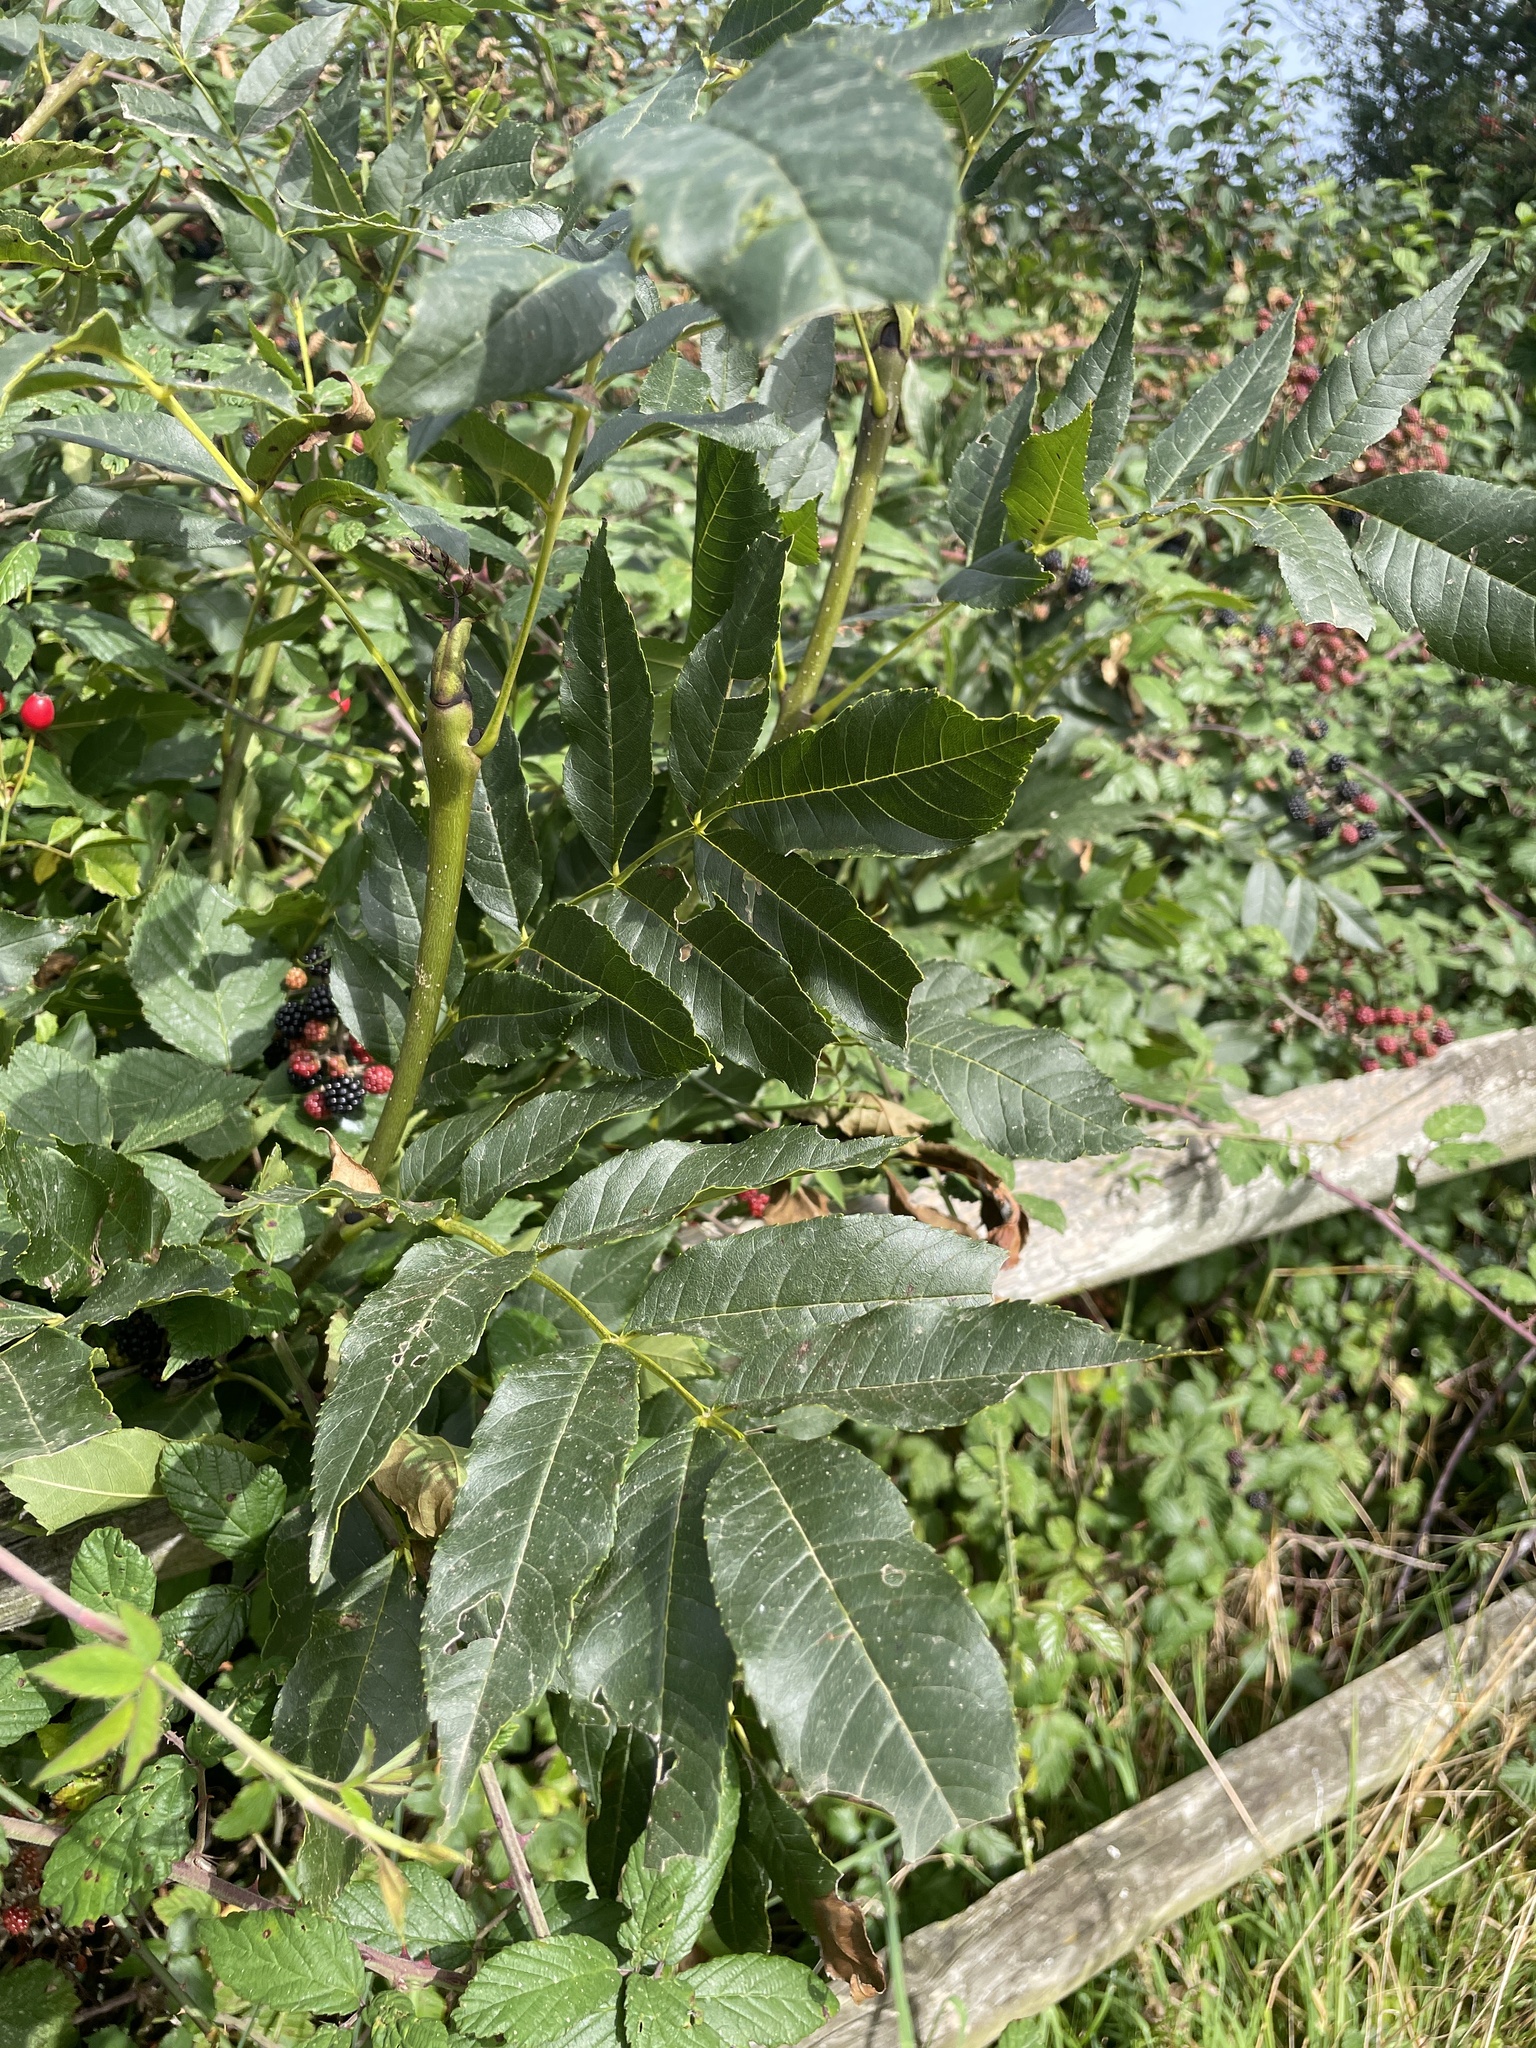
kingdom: Plantae
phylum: Tracheophyta
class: Magnoliopsida
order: Lamiales
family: Oleaceae
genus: Fraxinus
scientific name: Fraxinus excelsior
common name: European ash
